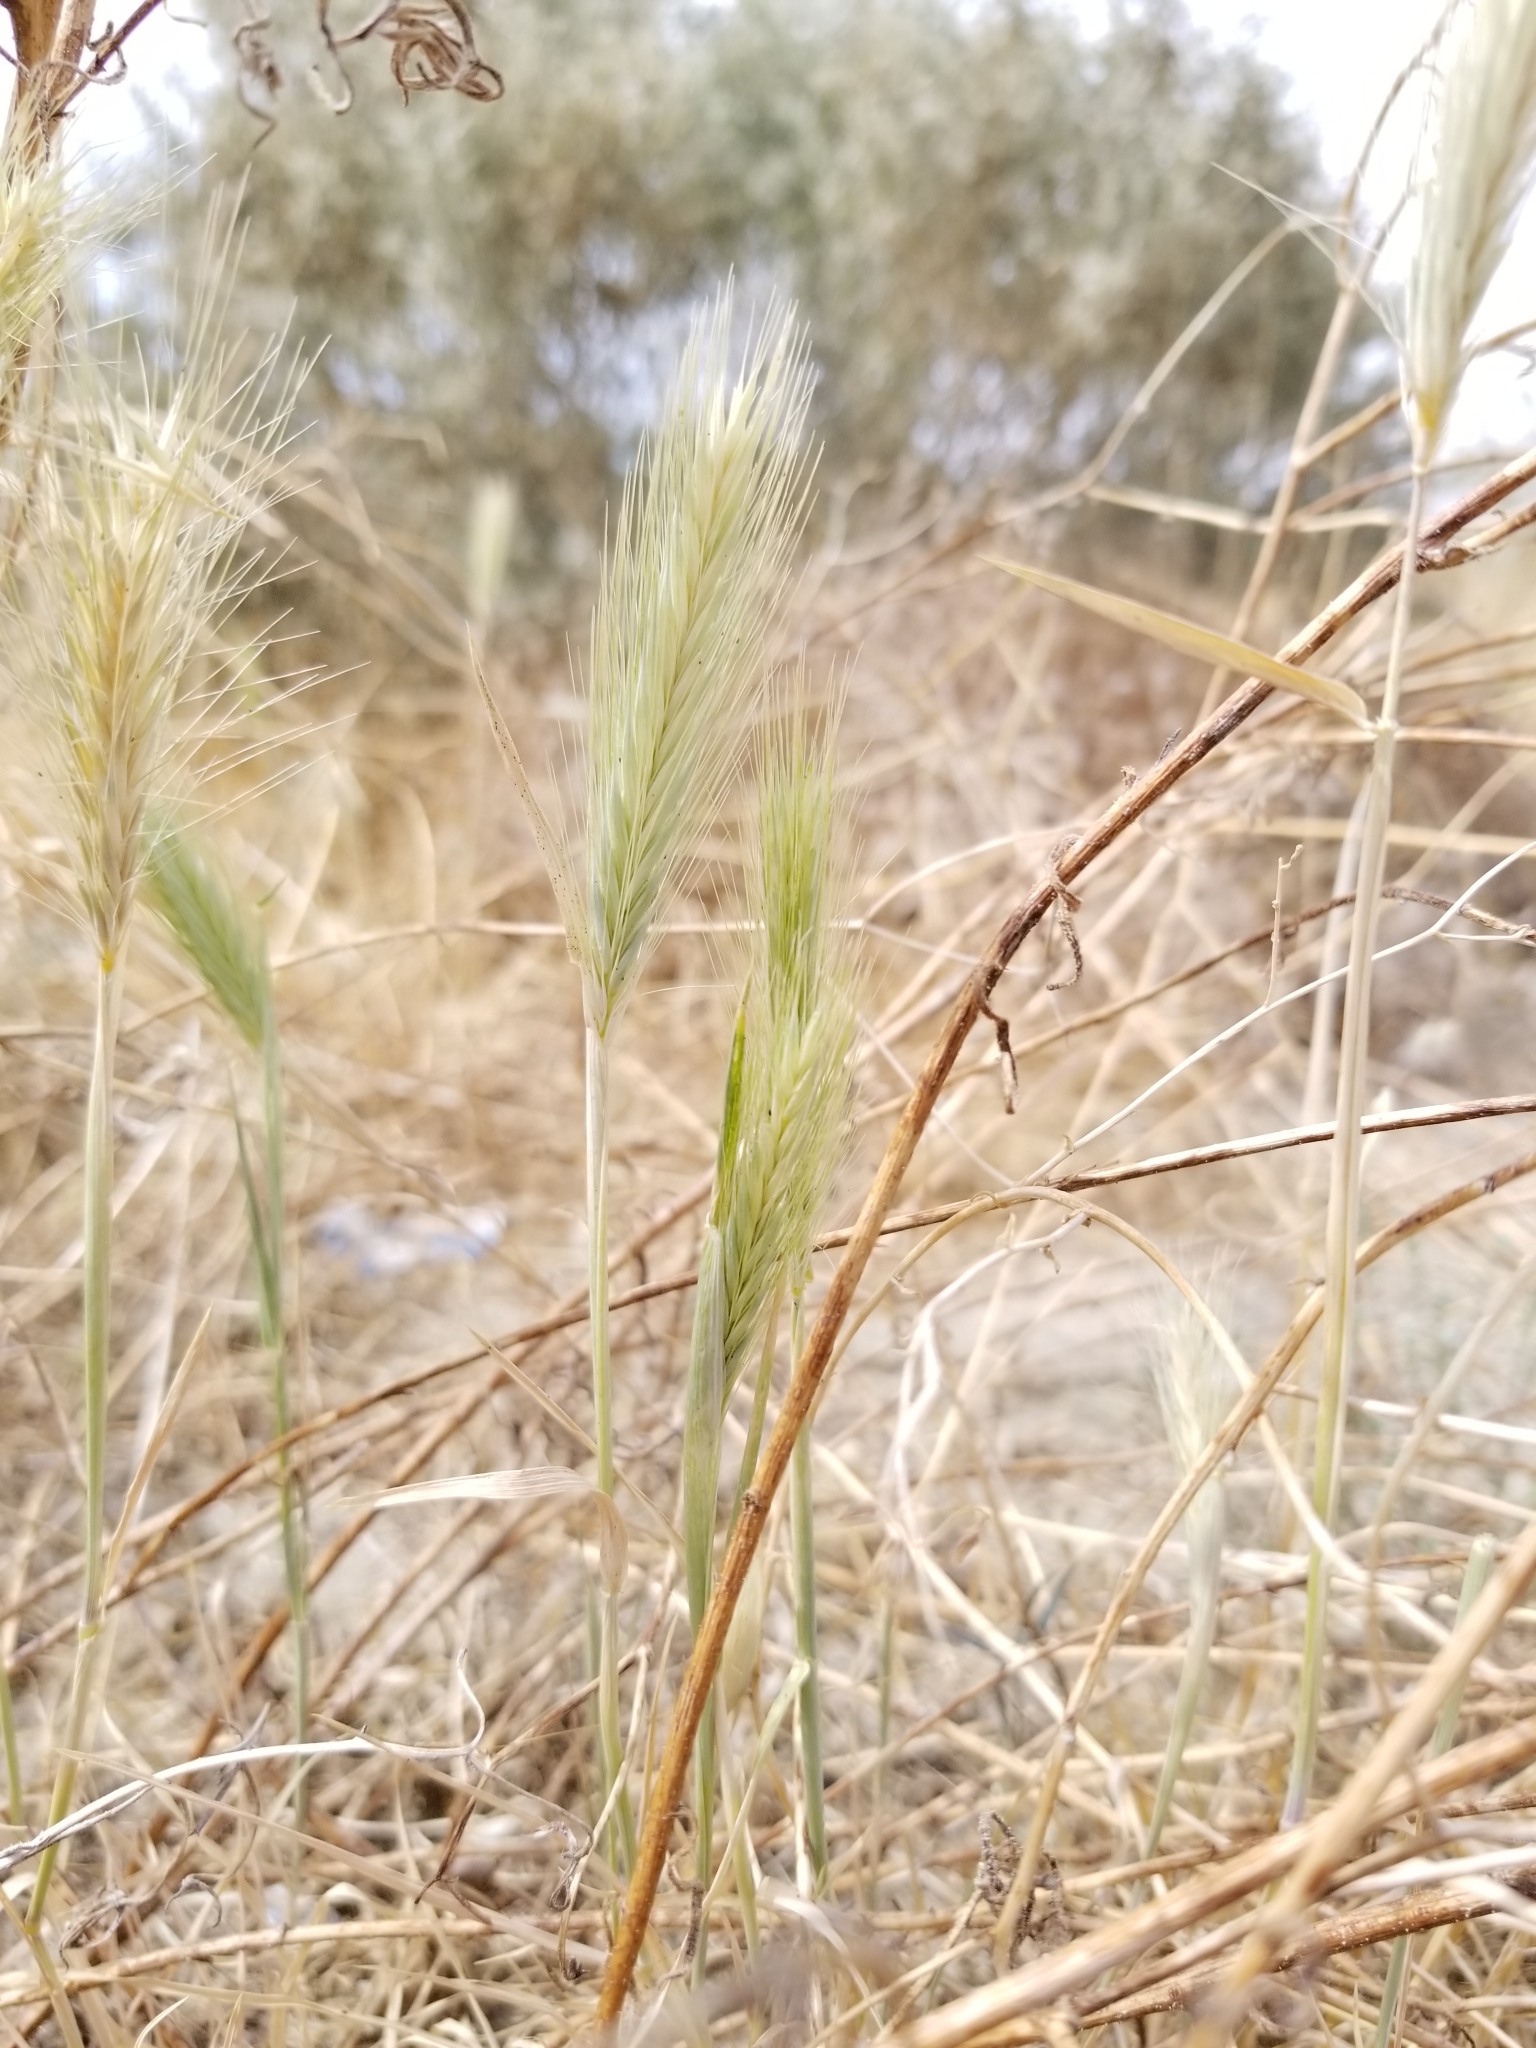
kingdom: Plantae
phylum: Tracheophyta
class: Liliopsida
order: Poales
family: Poaceae
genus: Hordeum
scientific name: Hordeum murinum
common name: Wall barley
